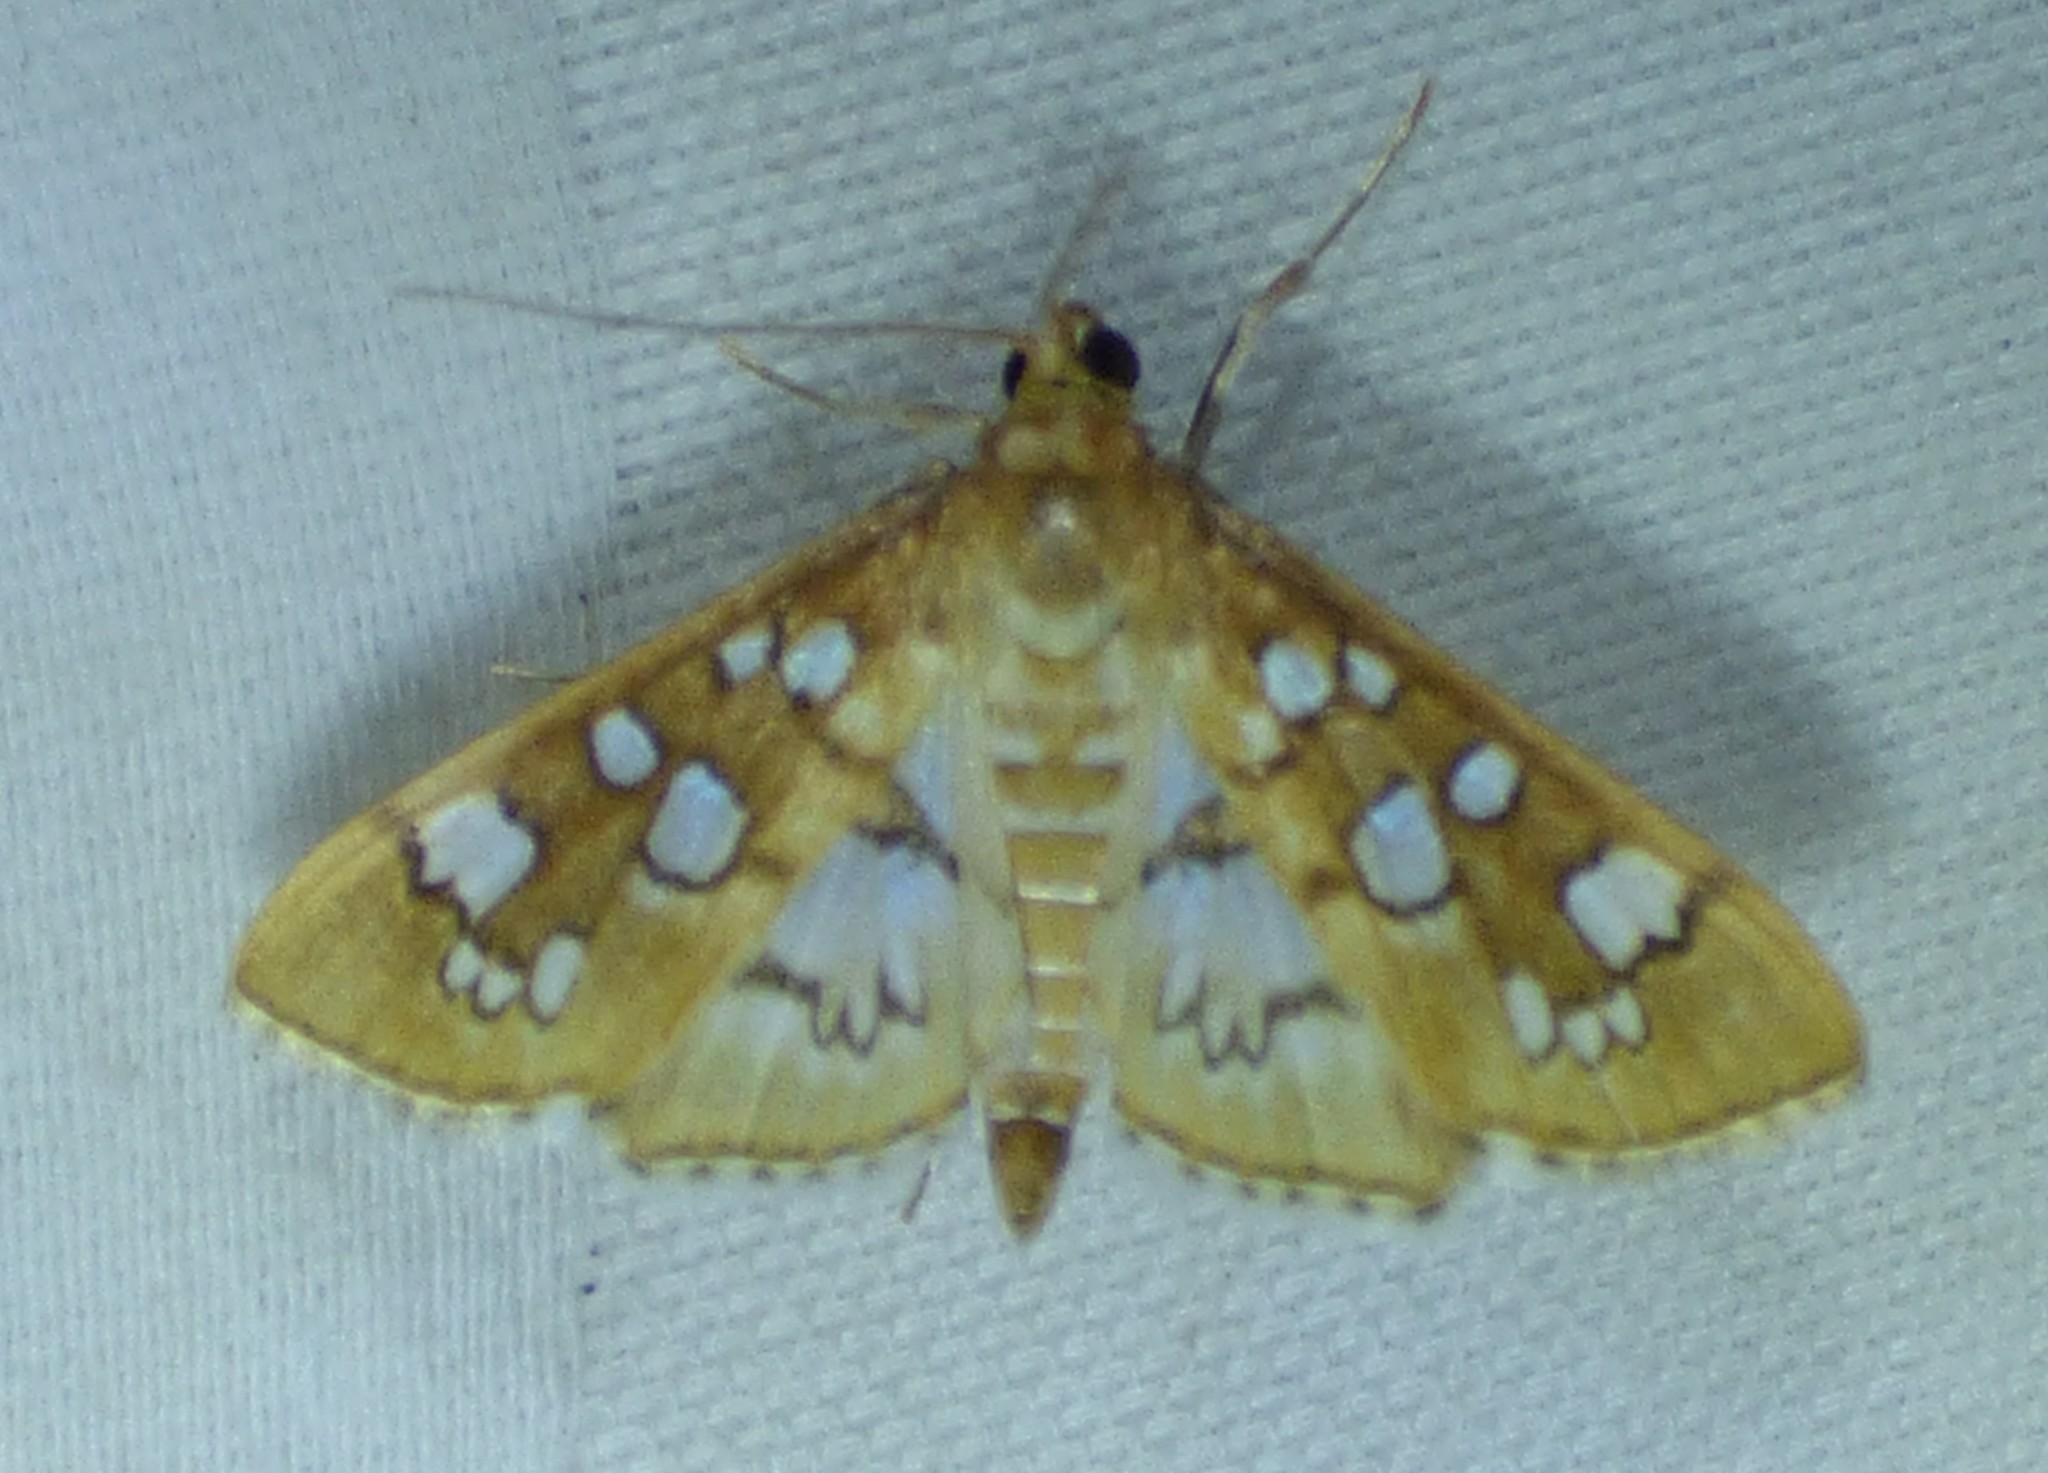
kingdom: Animalia
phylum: Arthropoda
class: Insecta
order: Lepidoptera
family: Crambidae
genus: Samea
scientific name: Samea baccatalis
